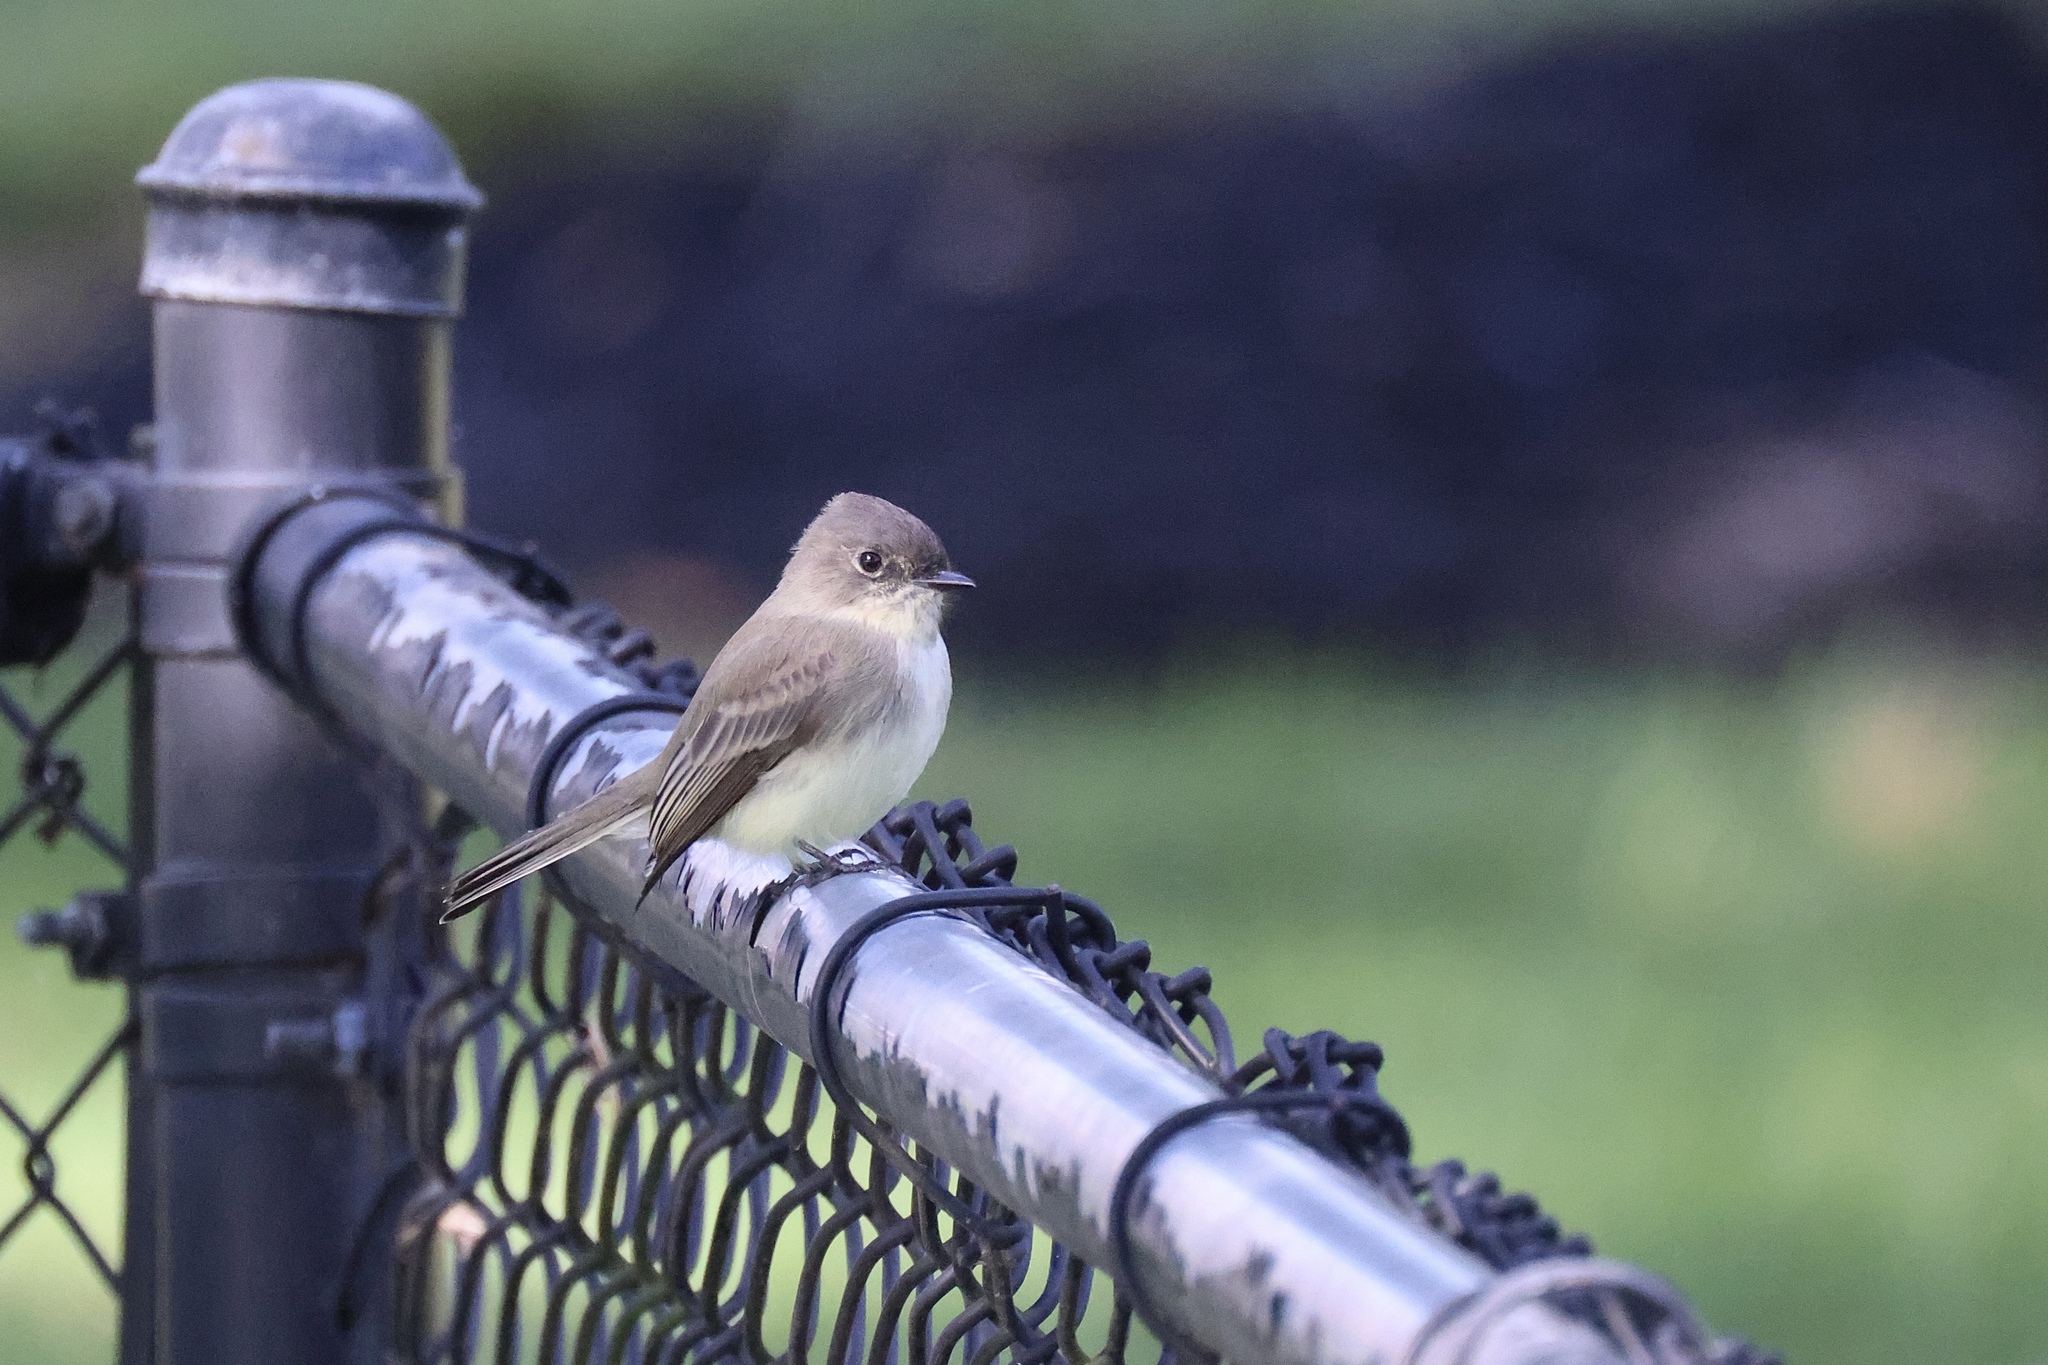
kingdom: Animalia
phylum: Chordata
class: Aves
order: Passeriformes
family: Tyrannidae
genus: Sayornis
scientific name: Sayornis phoebe
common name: Eastern phoebe
